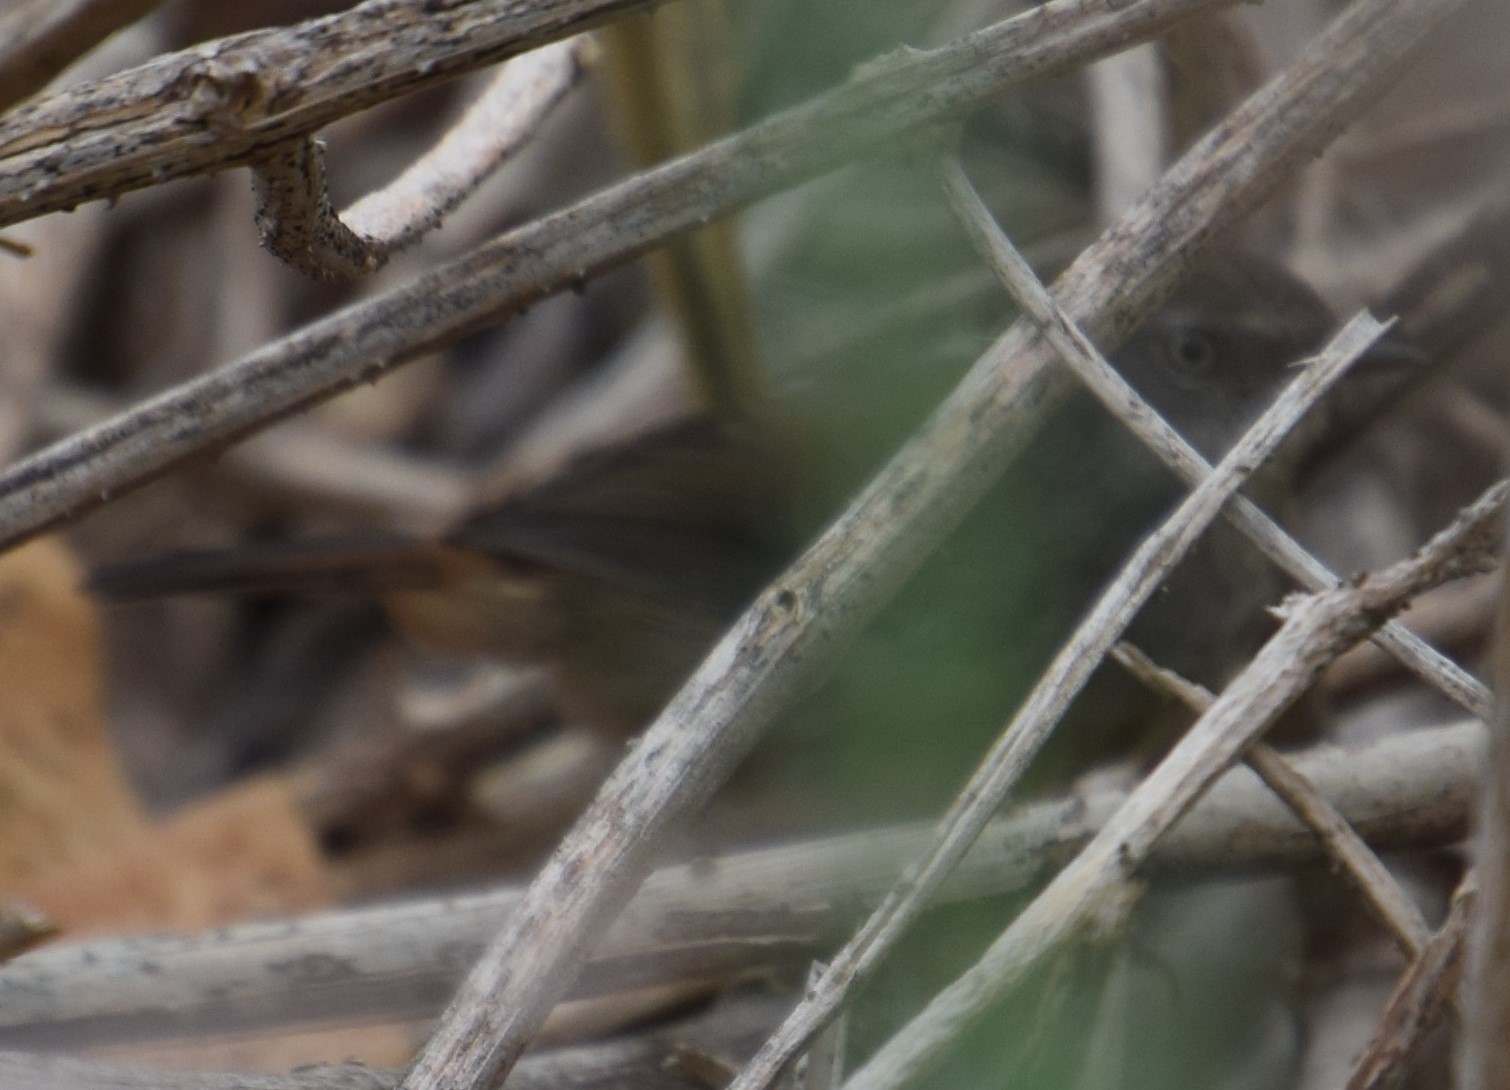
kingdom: Animalia
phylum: Chordata
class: Aves
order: Passeriformes
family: Acanthizidae
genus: Sericornis
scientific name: Sericornis frontalis
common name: White-browed scrubwren
